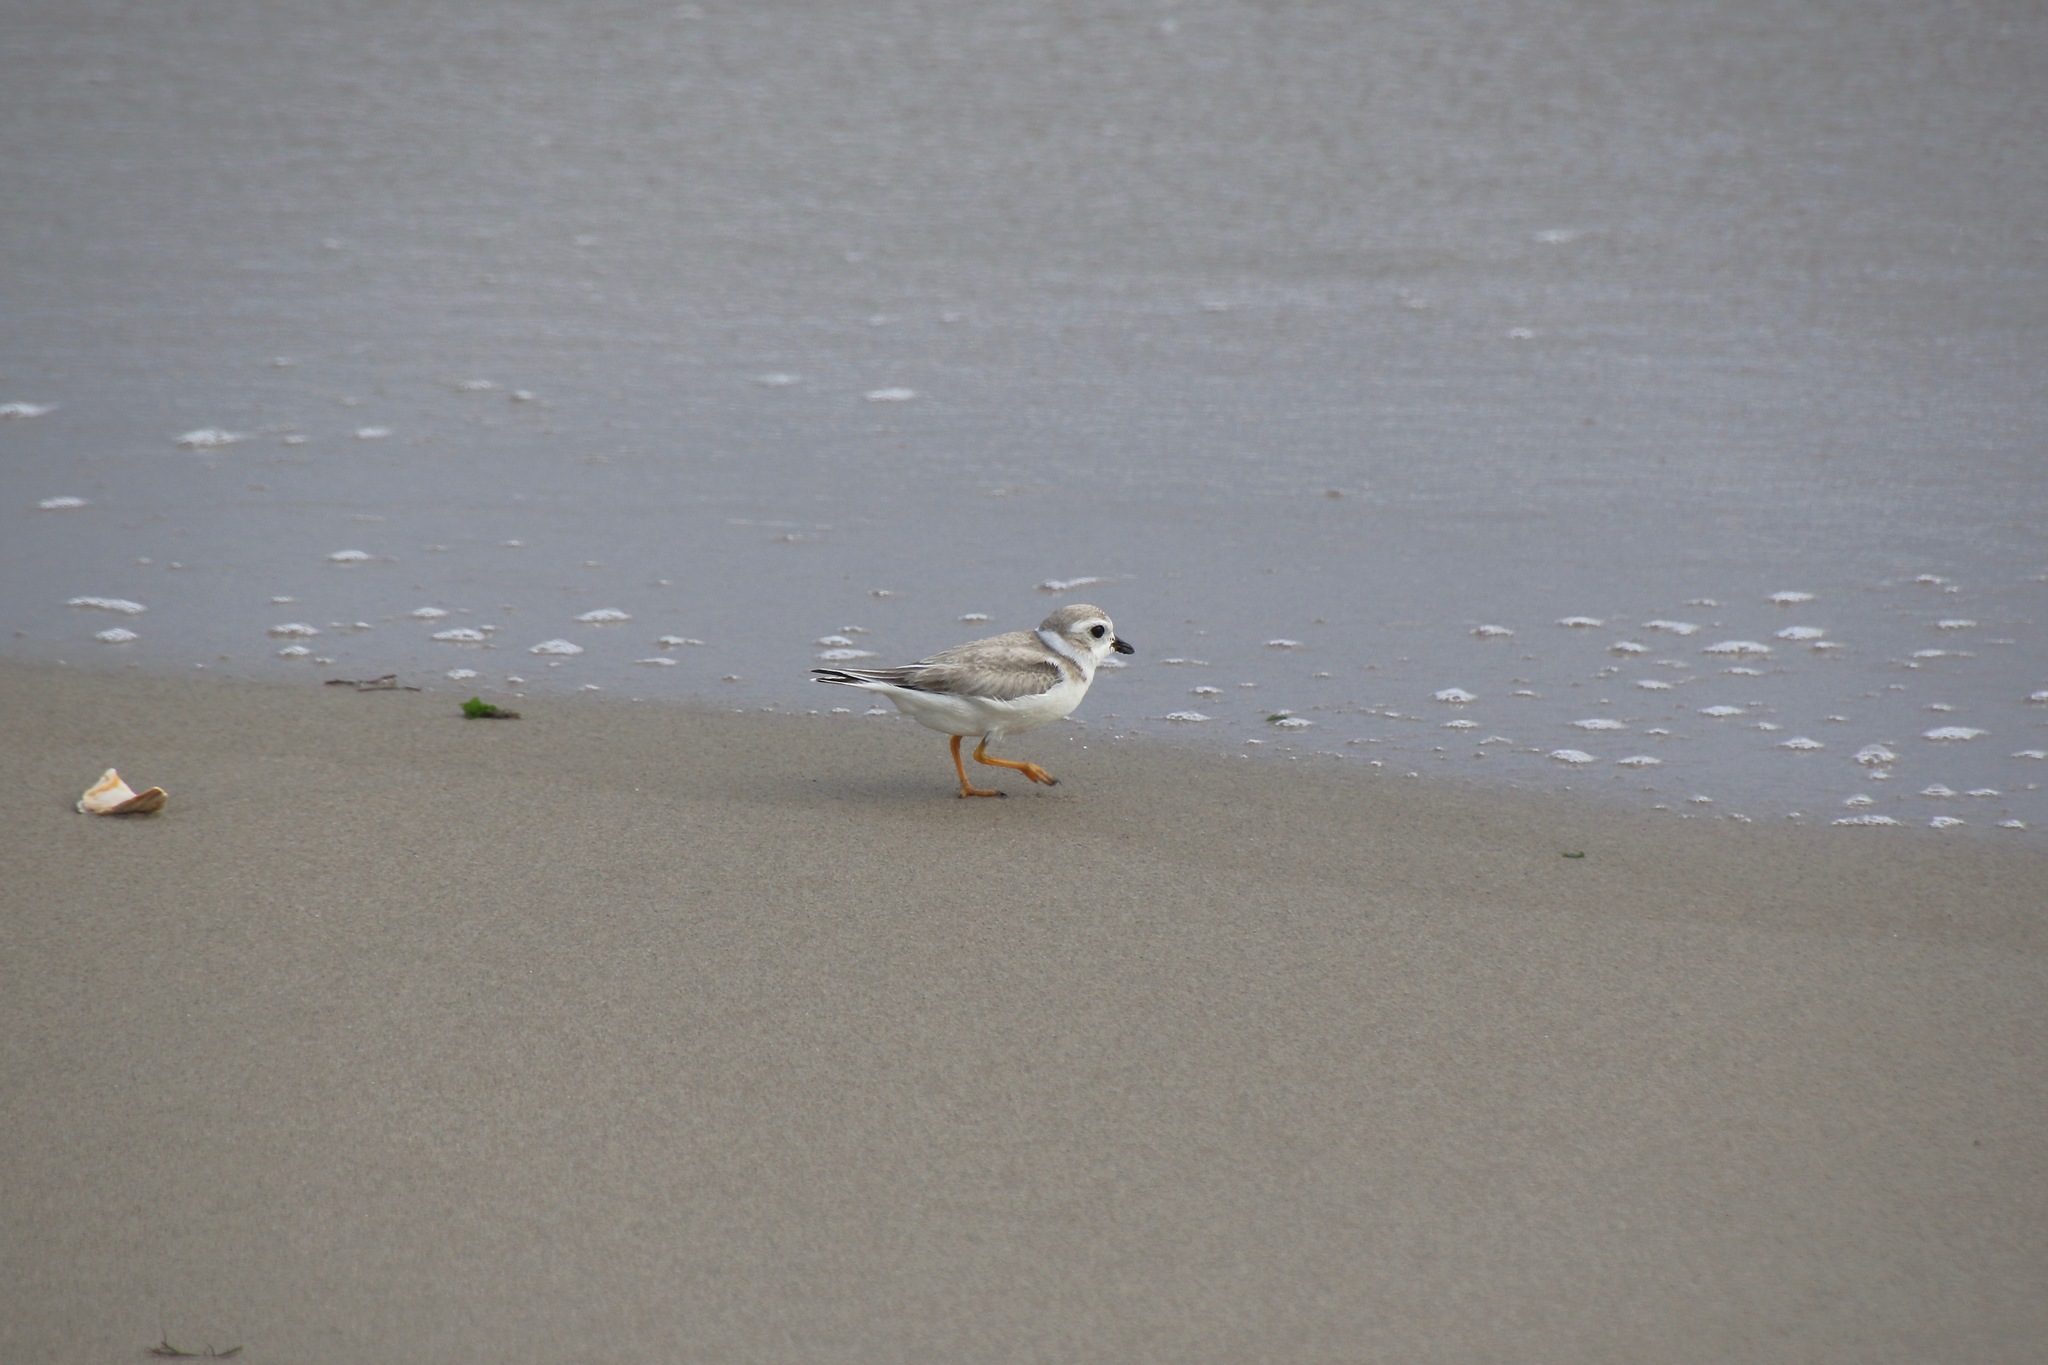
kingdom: Animalia
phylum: Chordata
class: Aves
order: Charadriiformes
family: Charadriidae
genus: Charadrius
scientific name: Charadrius melodus
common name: Piping plover
